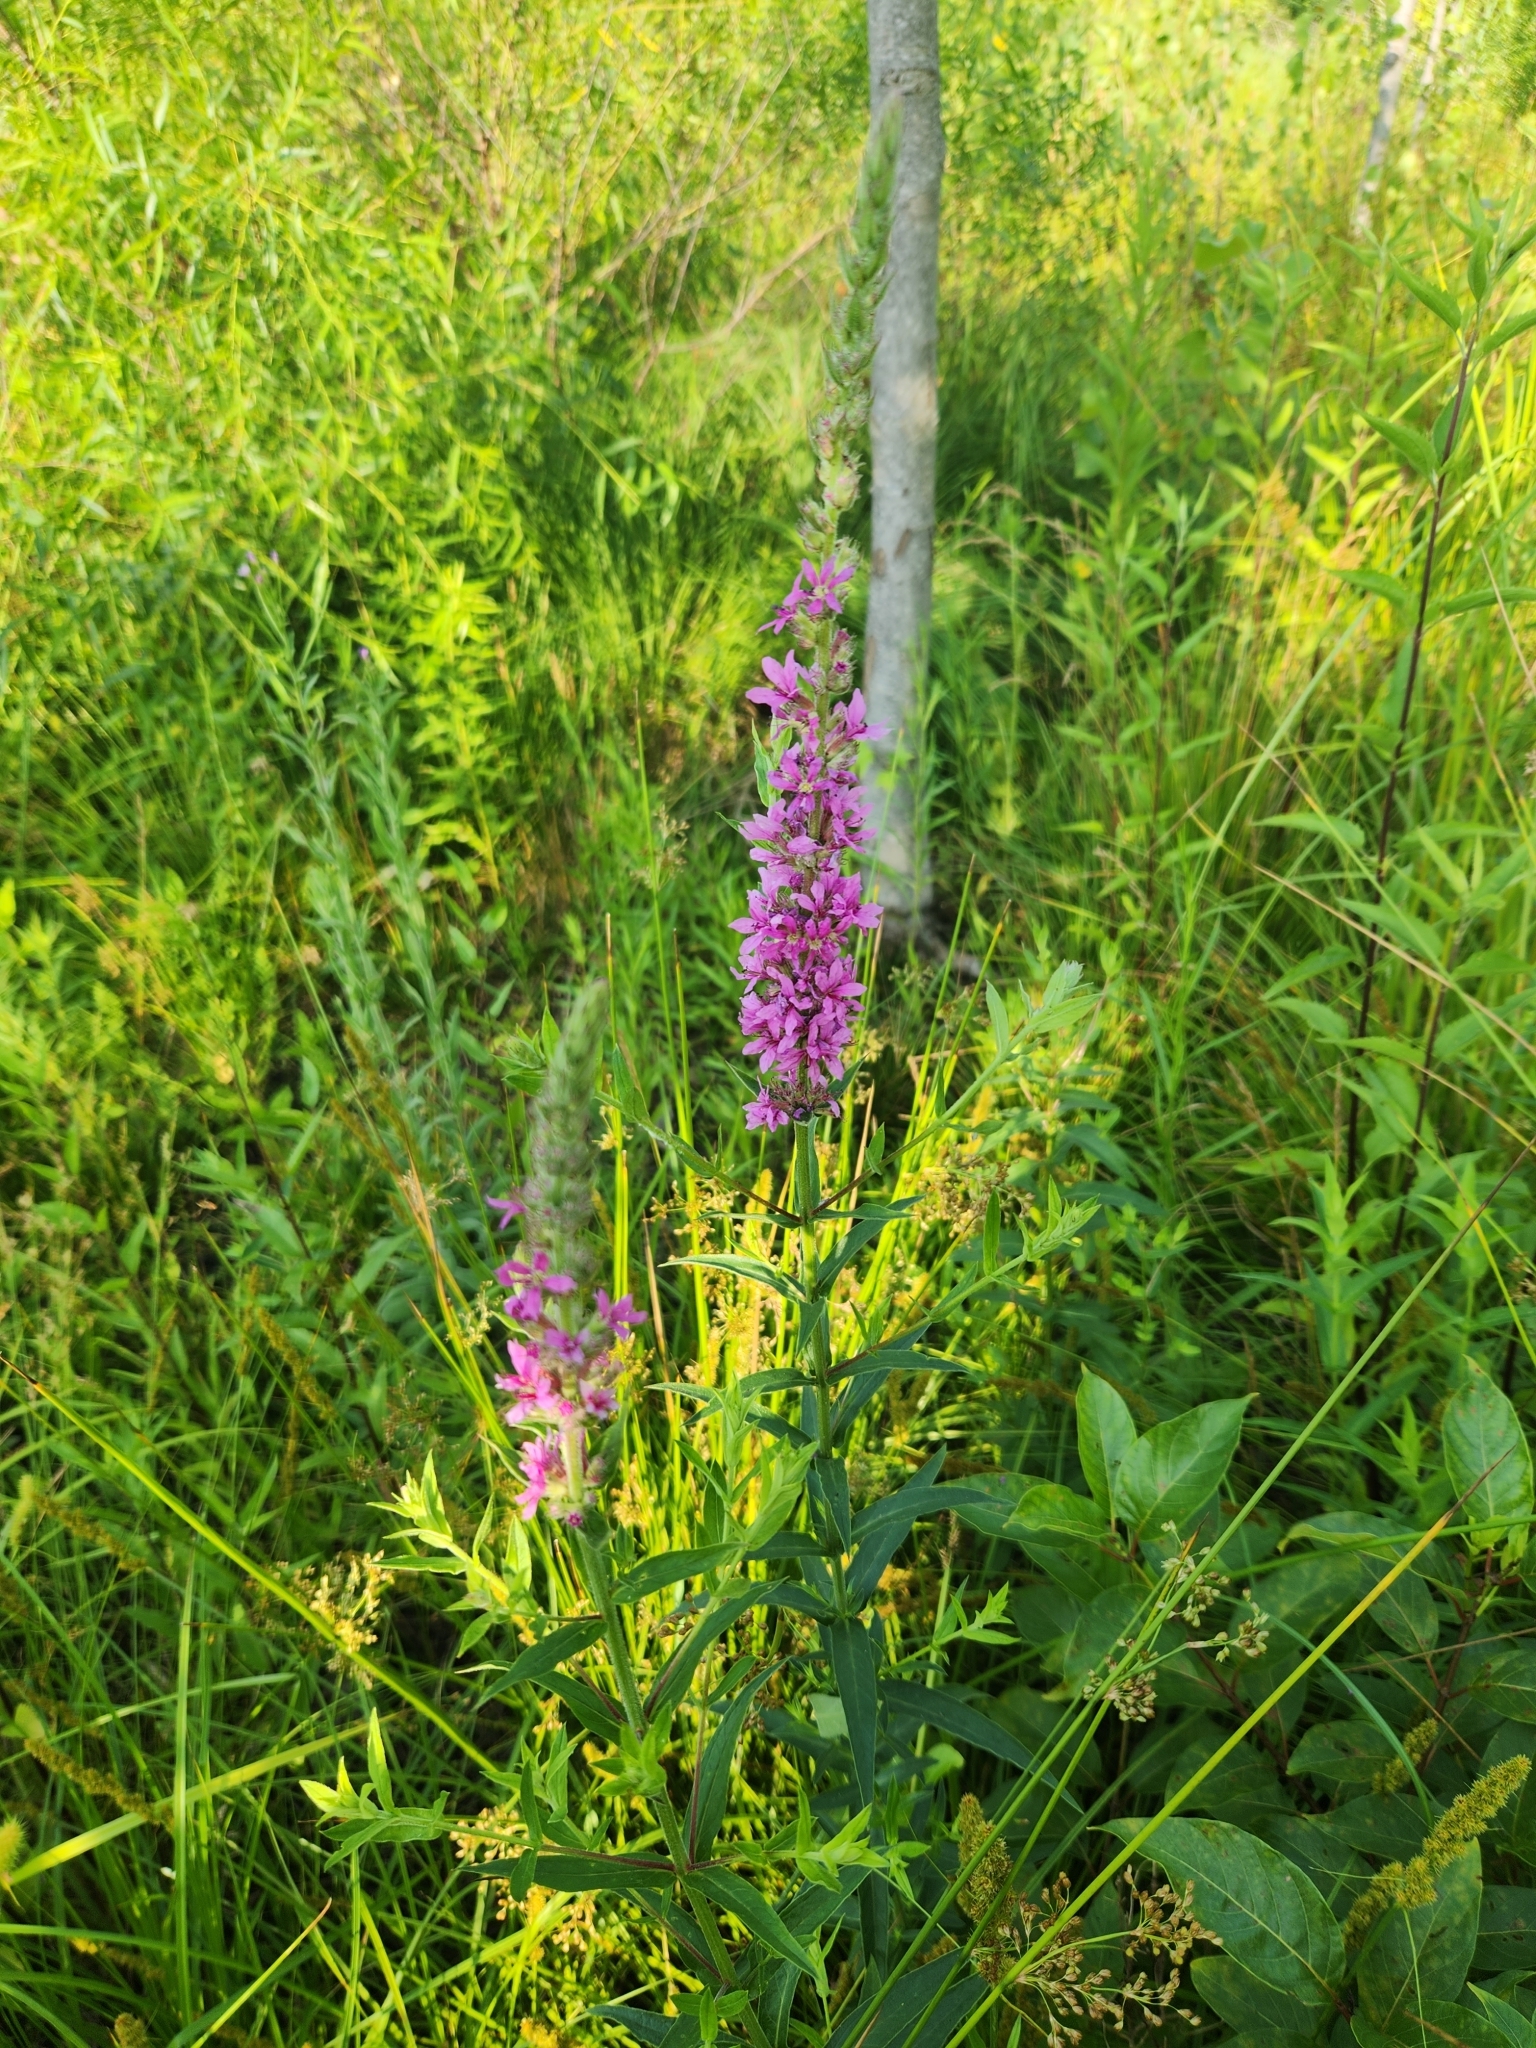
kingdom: Plantae
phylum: Tracheophyta
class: Magnoliopsida
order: Myrtales
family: Lythraceae
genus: Lythrum
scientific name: Lythrum salicaria
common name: Purple loosestrife
